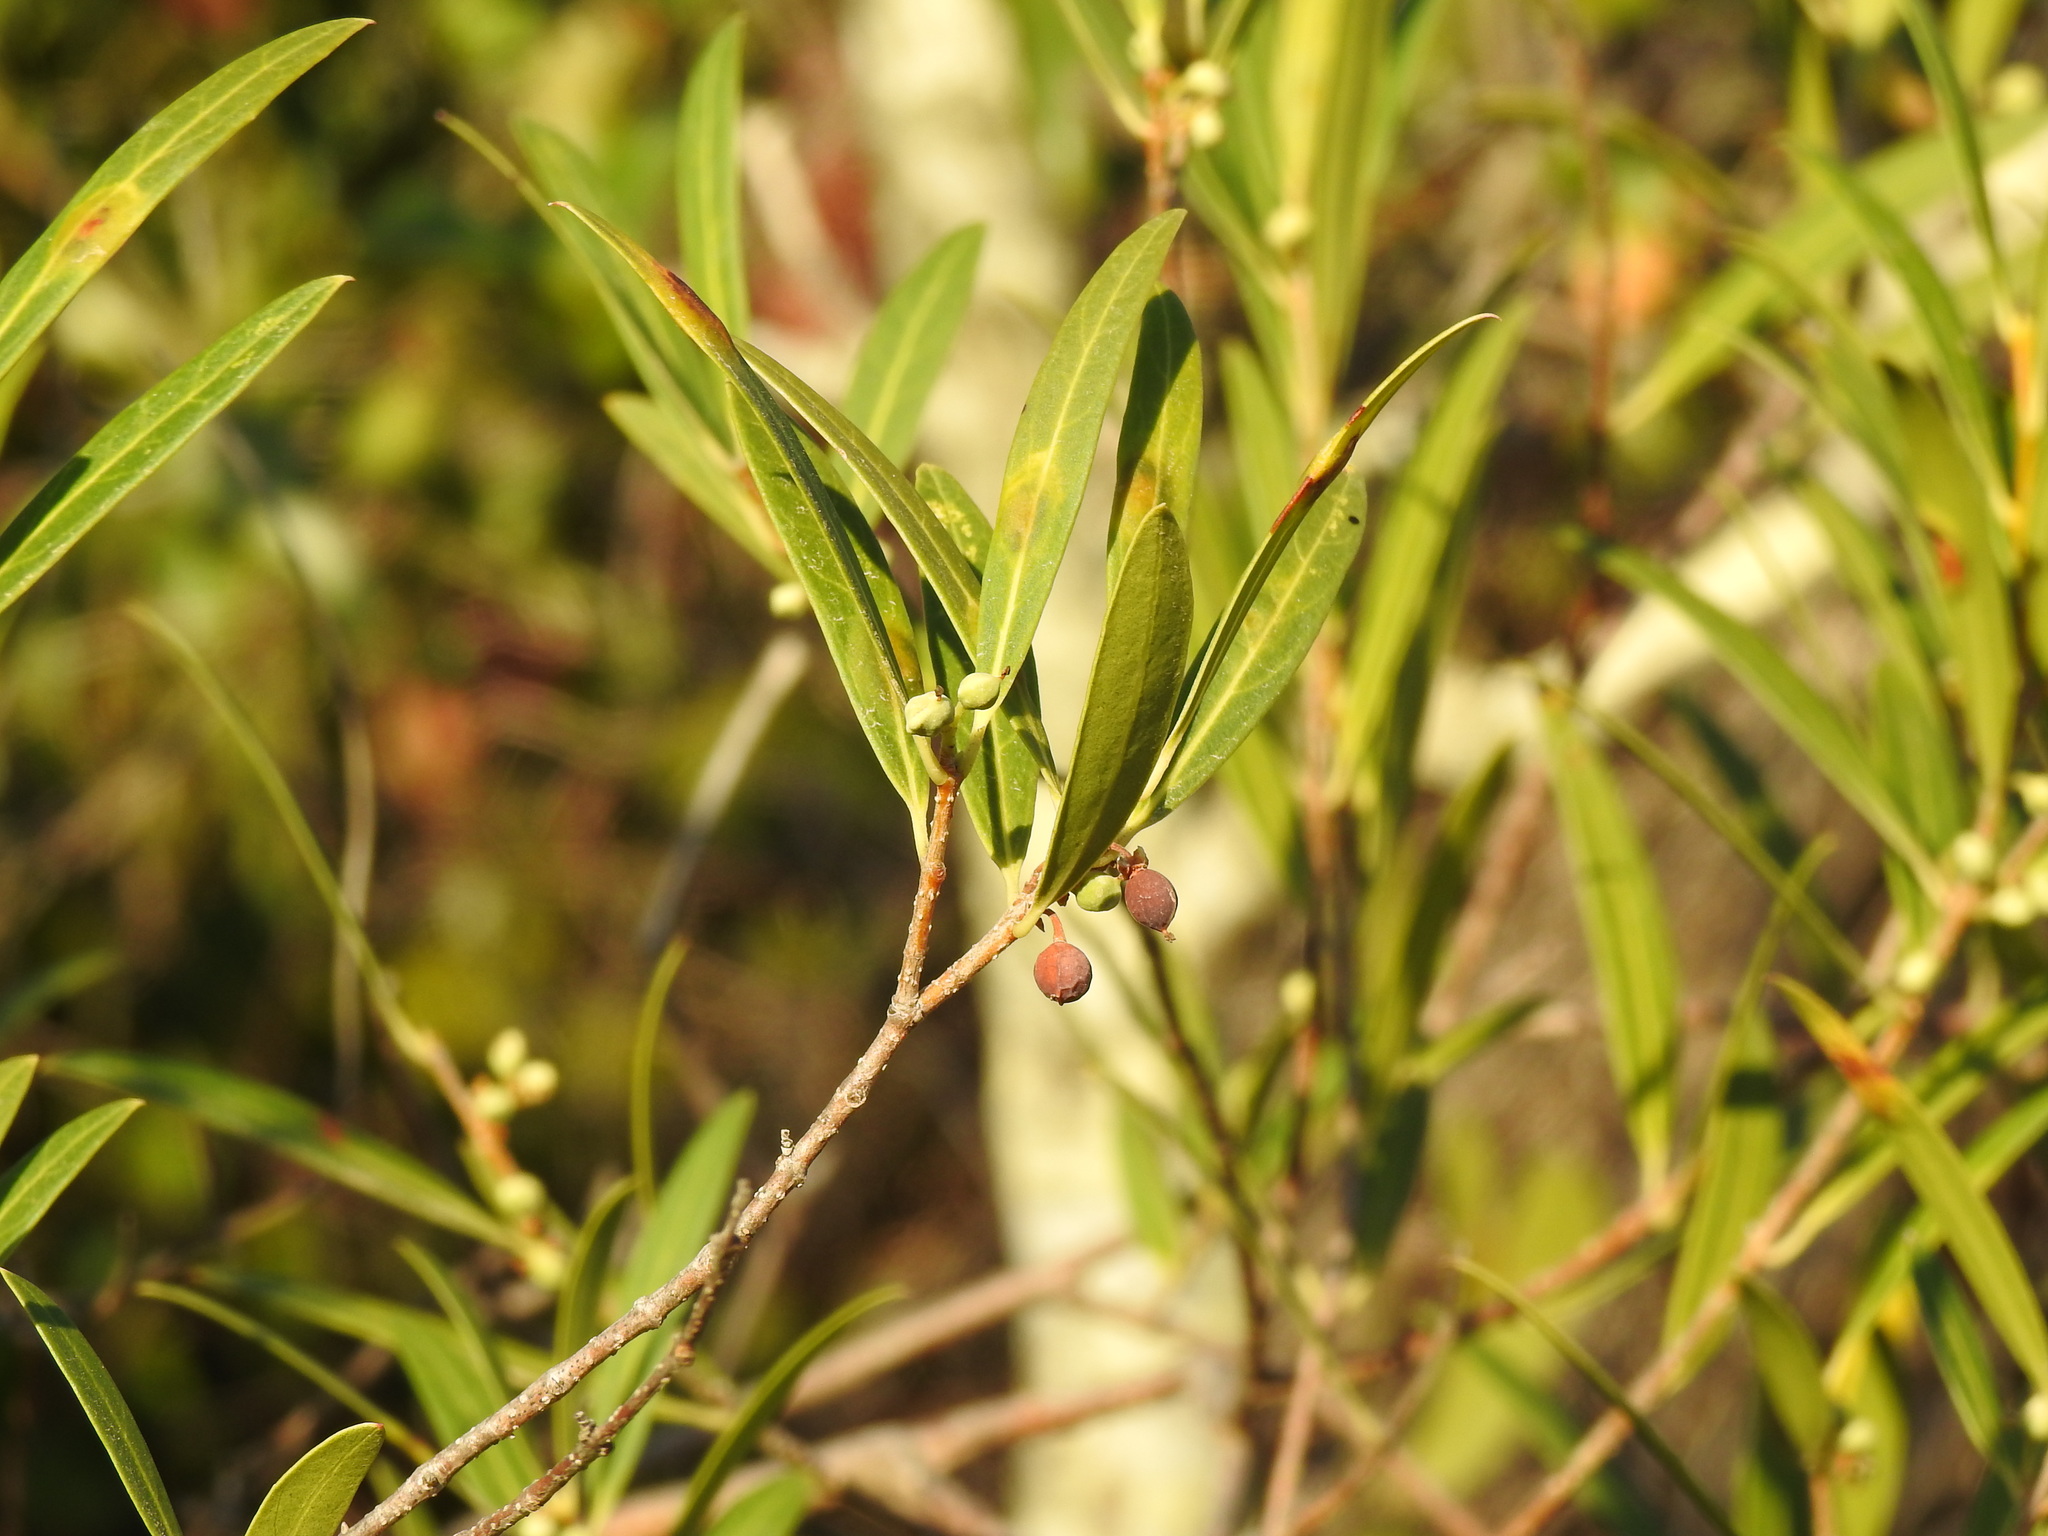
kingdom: Plantae
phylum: Tracheophyta
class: Magnoliopsida
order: Lamiales
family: Oleaceae
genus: Phillyrea
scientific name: Phillyrea angustifolia
